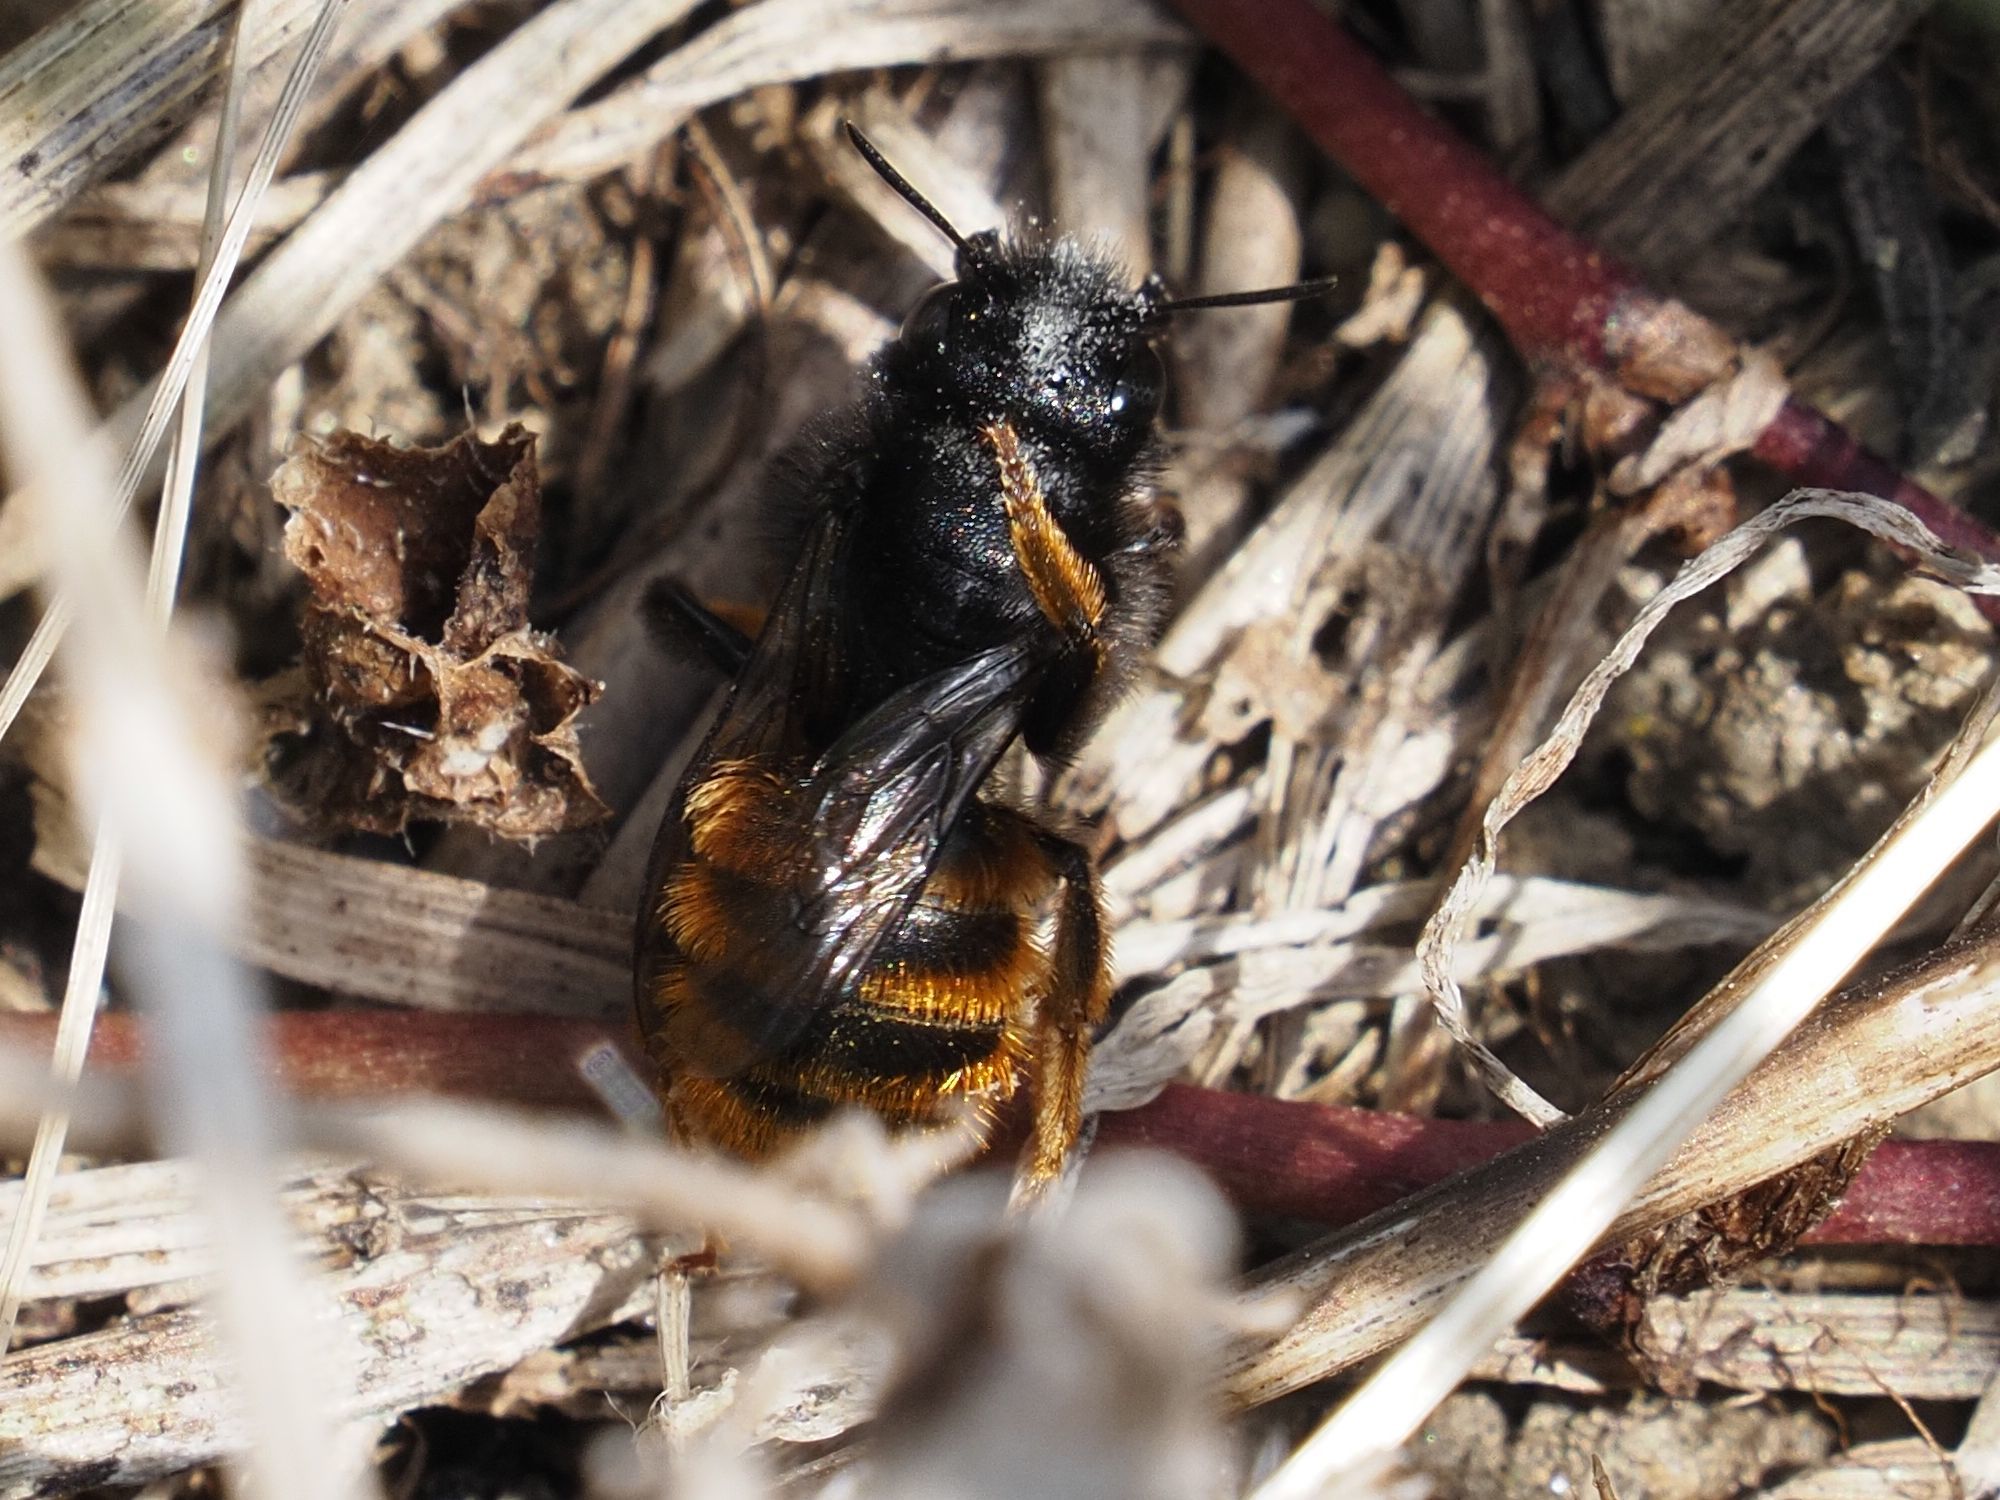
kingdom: Animalia
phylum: Arthropoda
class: Insecta
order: Hymenoptera
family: Megachilidae
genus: Osmia
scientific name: Osmia bicolor
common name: Red-tailed mason bee
